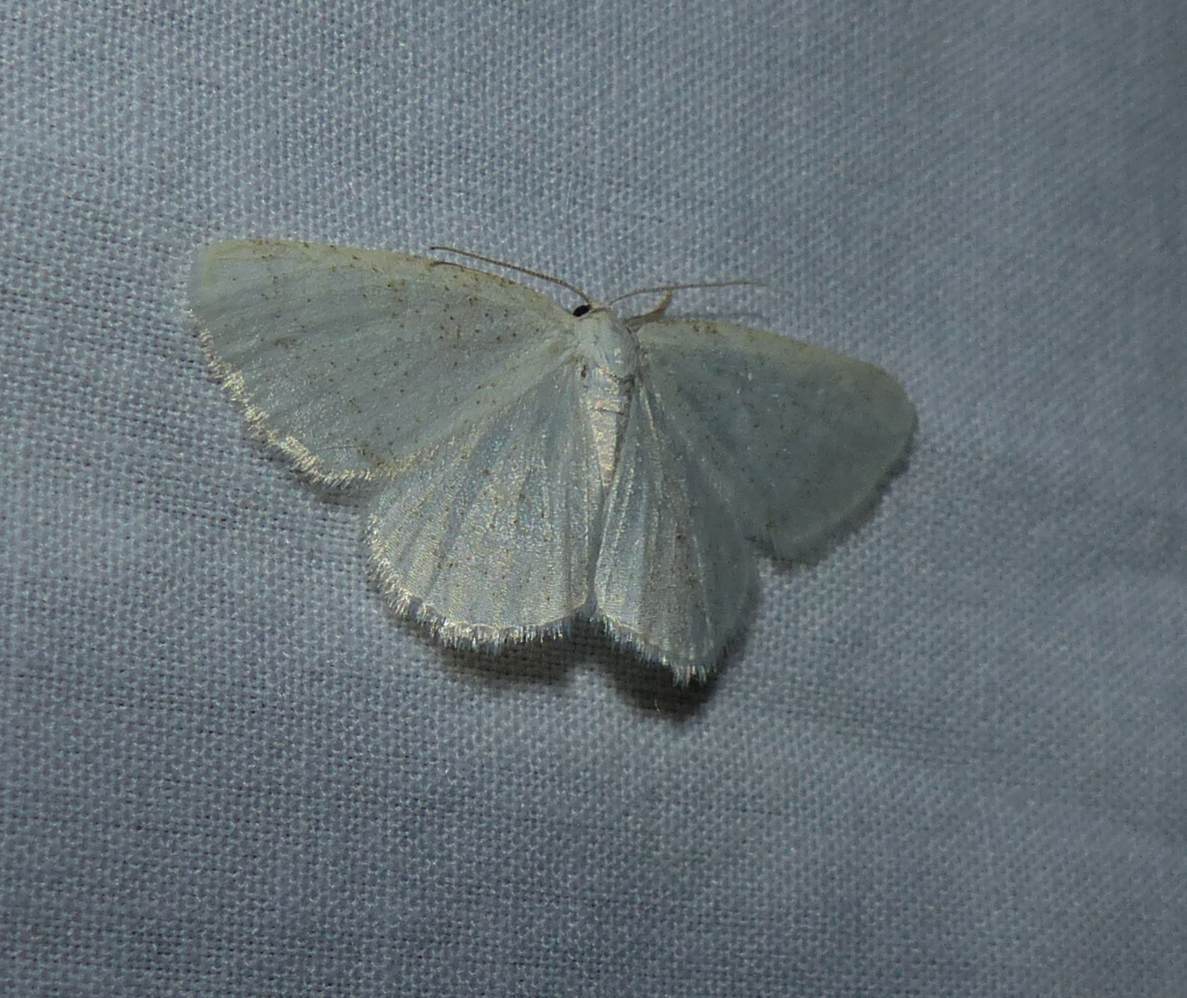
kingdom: Animalia
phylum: Arthropoda
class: Insecta
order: Lepidoptera
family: Geometridae
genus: Protitame
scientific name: Protitame virginalis
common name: Virgin moth
